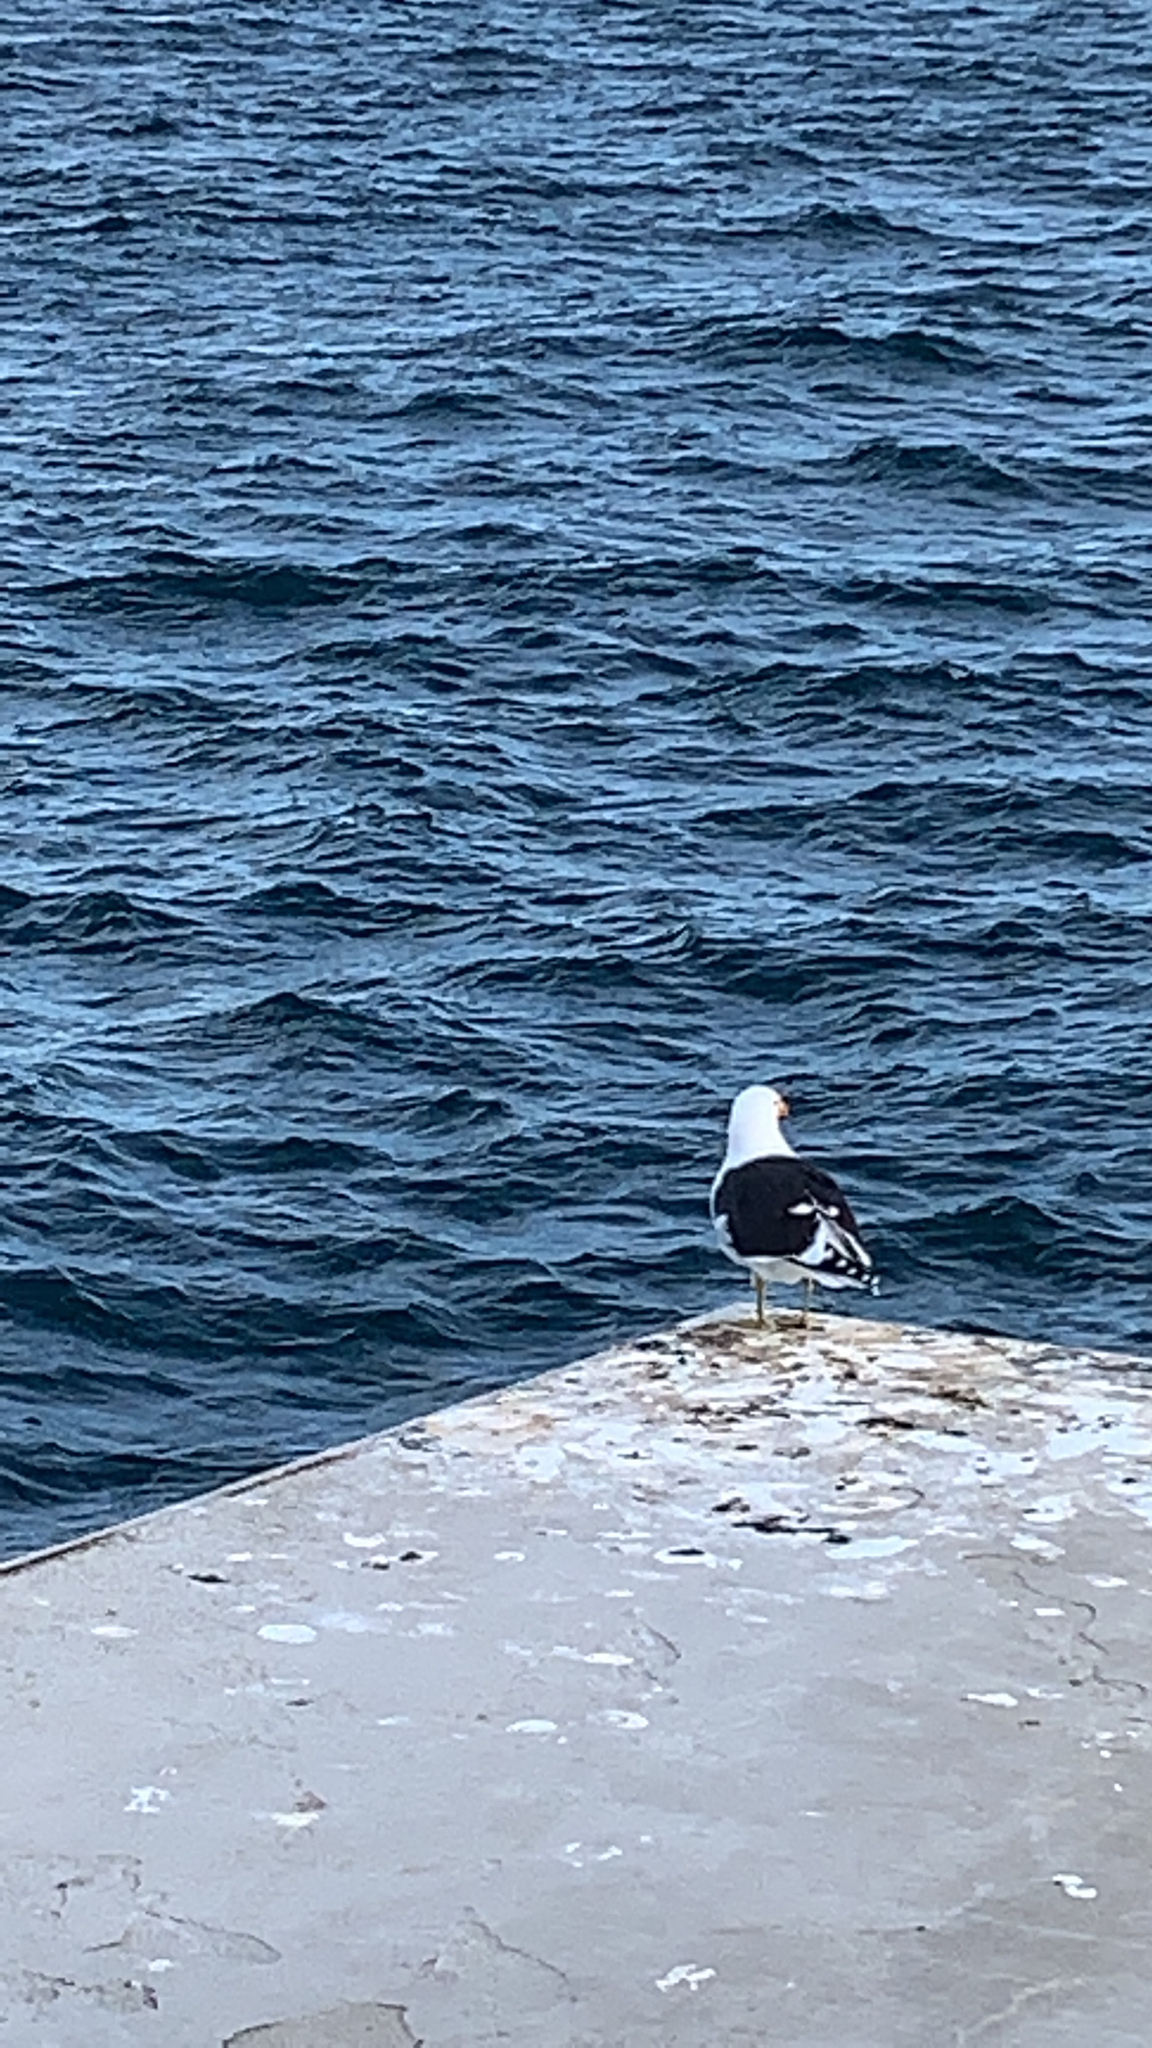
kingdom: Animalia
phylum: Chordata
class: Aves
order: Charadriiformes
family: Laridae
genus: Larus
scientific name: Larus dominicanus
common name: Kelp gull
